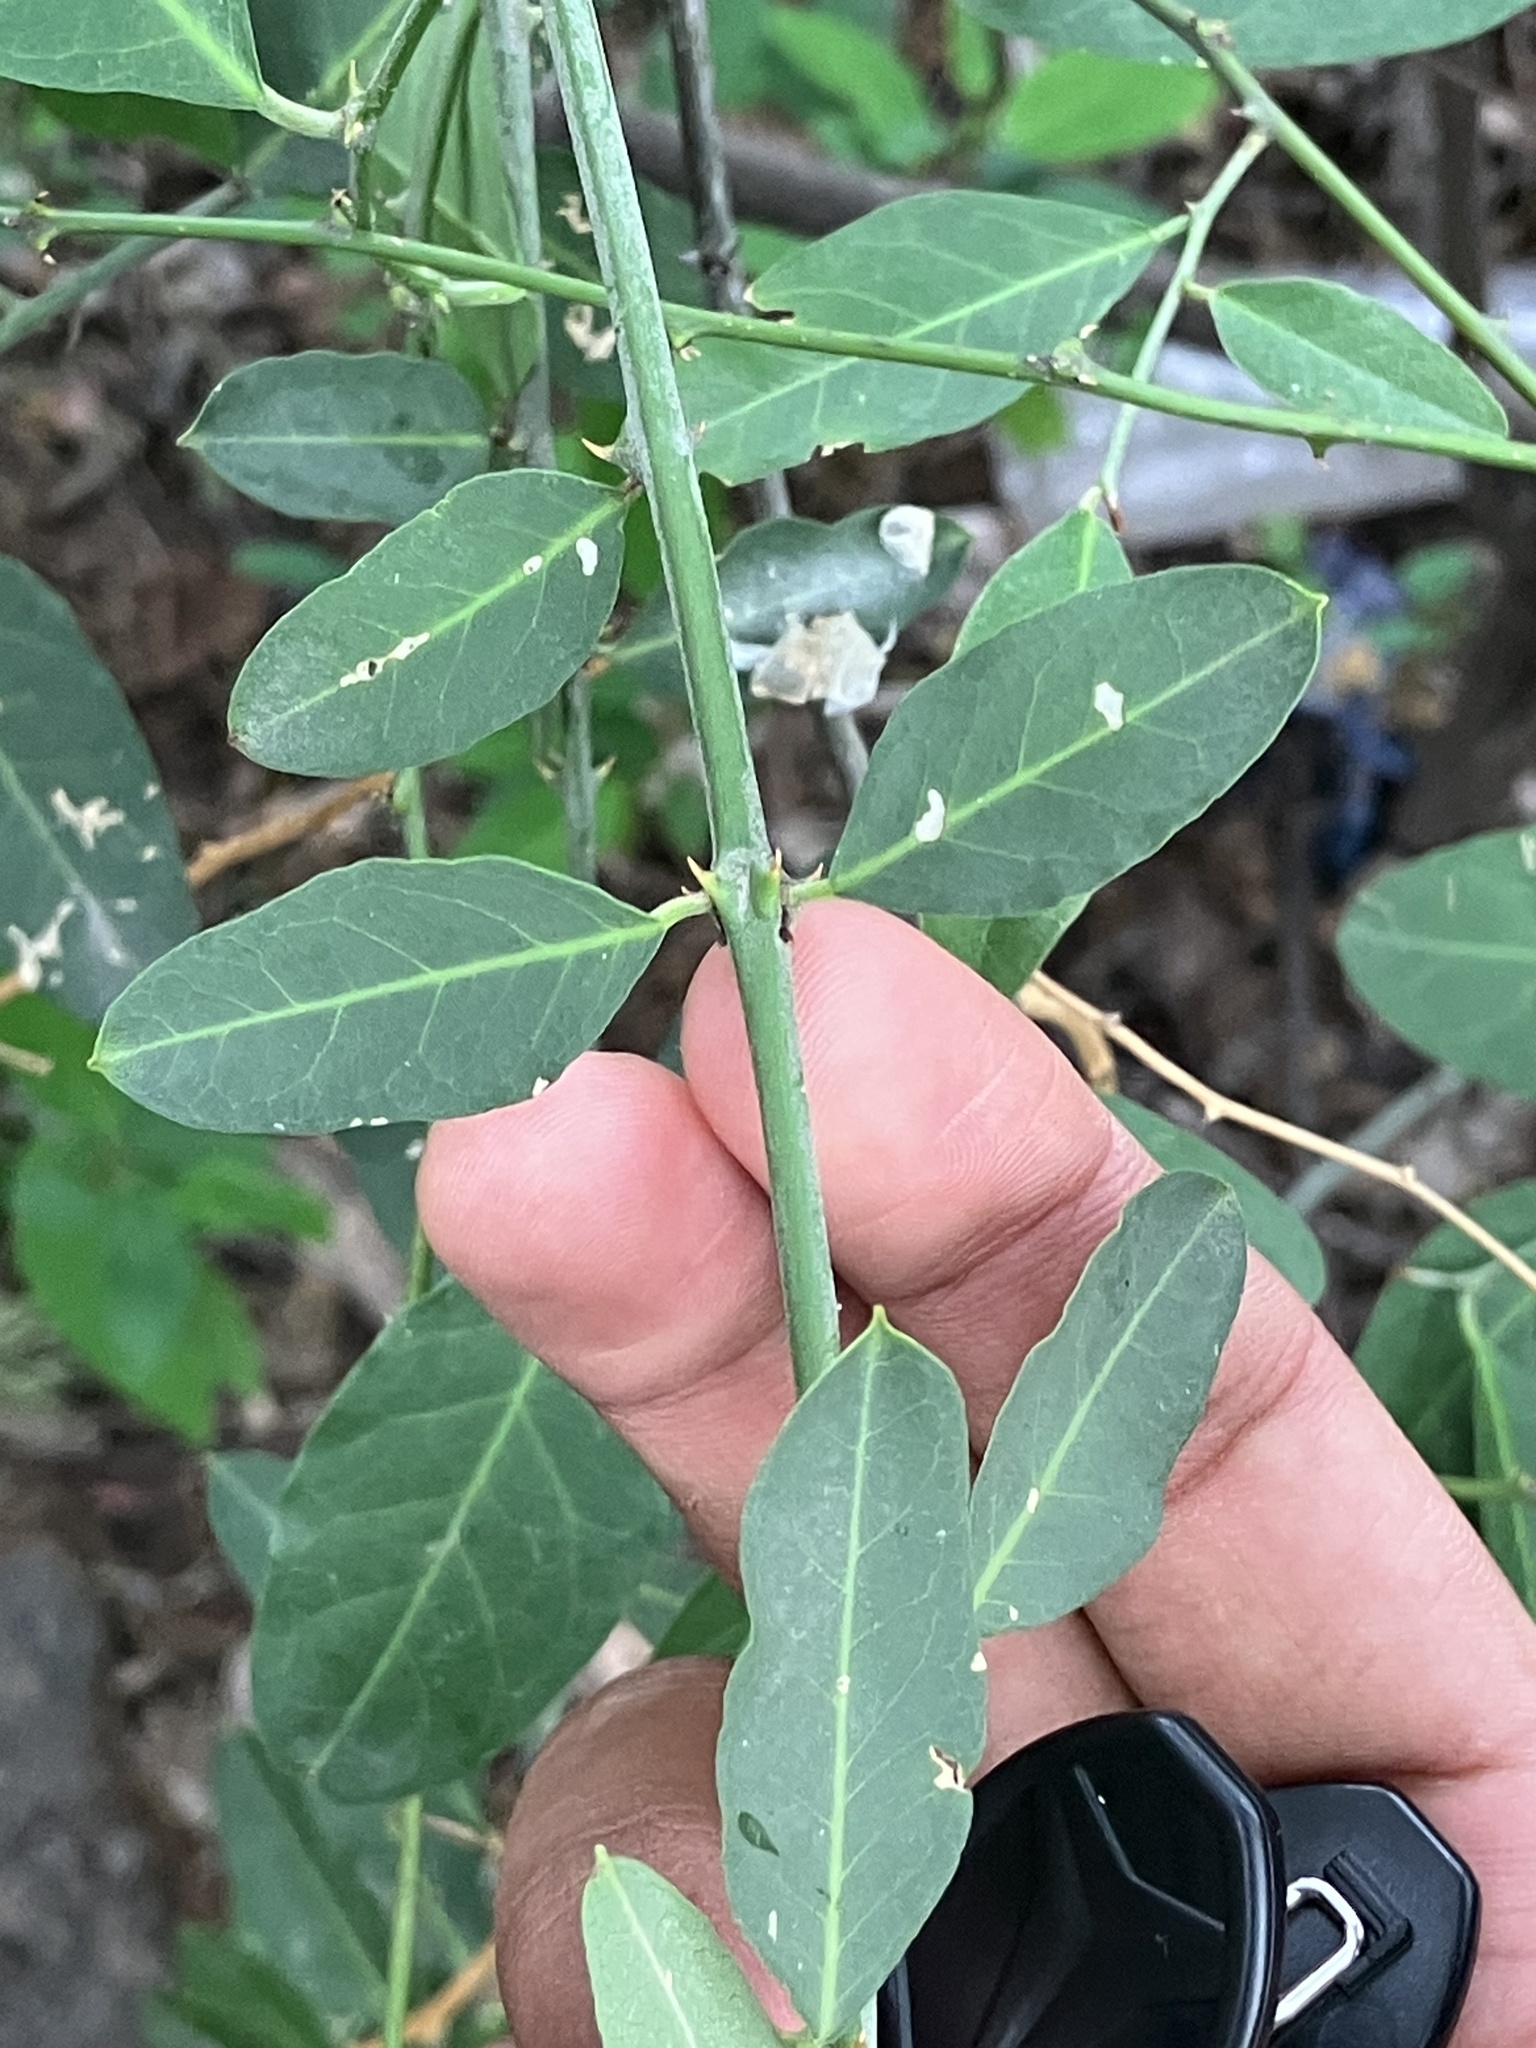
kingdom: Plantae
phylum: Tracheophyta
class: Magnoliopsida
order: Brassicales
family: Capparaceae
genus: Capparis
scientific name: Capparis zeylanica
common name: Ceylon caper
